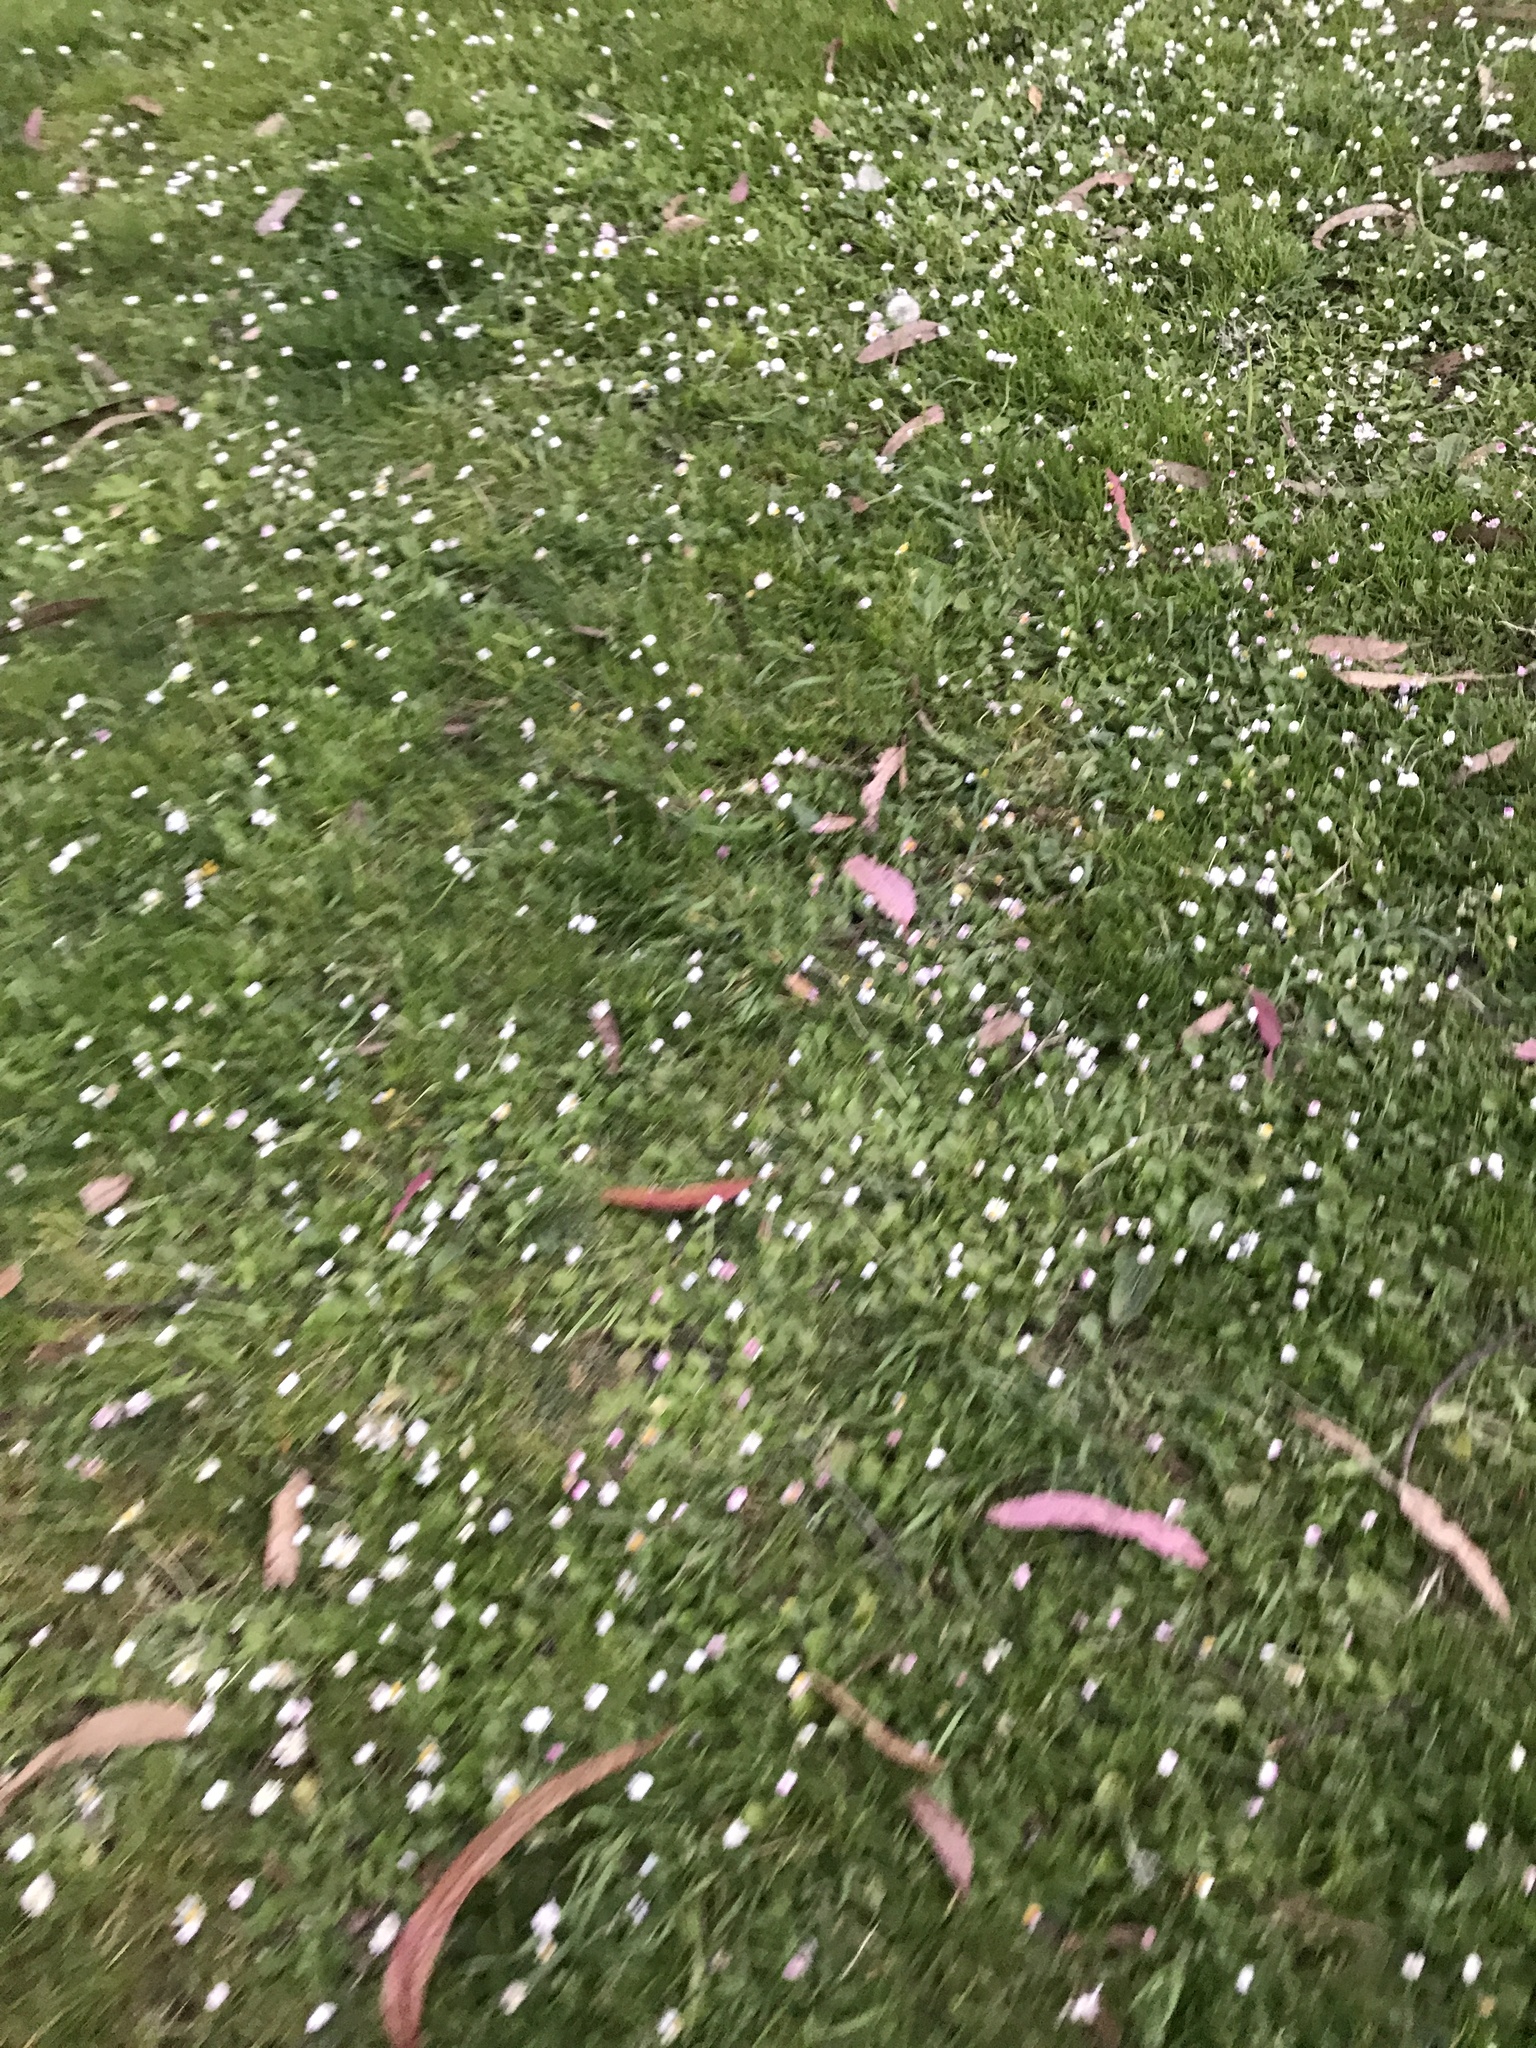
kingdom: Plantae
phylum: Tracheophyta
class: Magnoliopsida
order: Asterales
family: Asteraceae
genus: Bellis
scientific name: Bellis perennis
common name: Lawndaisy
